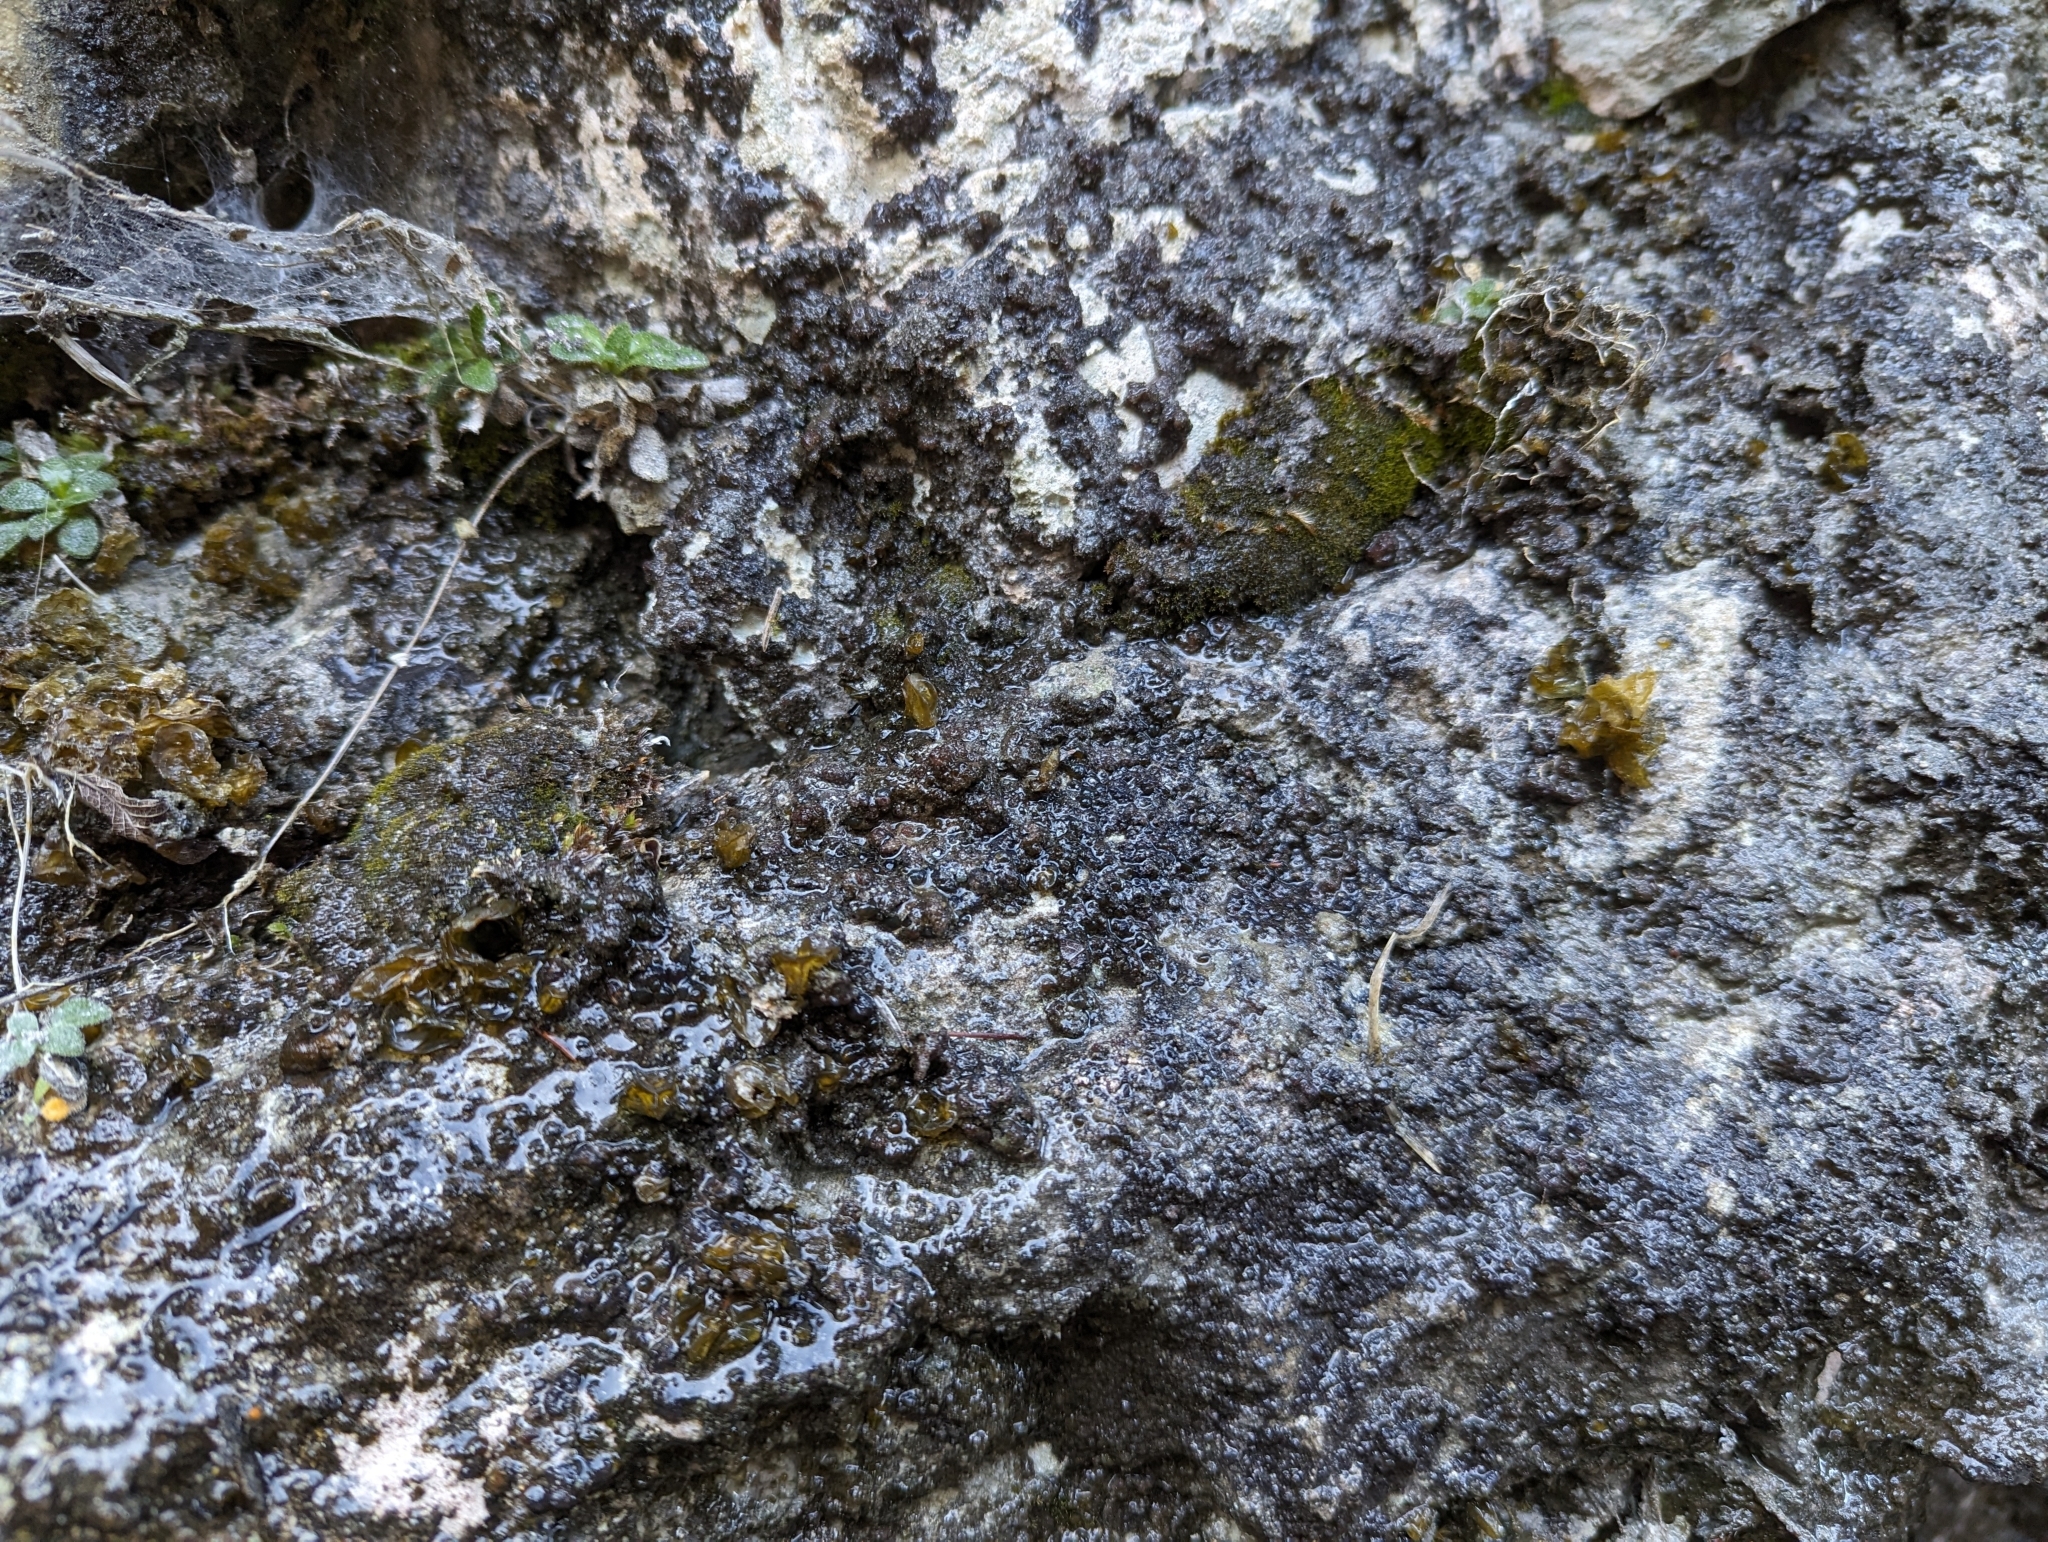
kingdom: Bacteria
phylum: Cyanobacteria
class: Cyanobacteriia
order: Cyanobacteriales
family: Nostocaceae
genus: Nostoc
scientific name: Nostoc commune
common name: Star jelly
